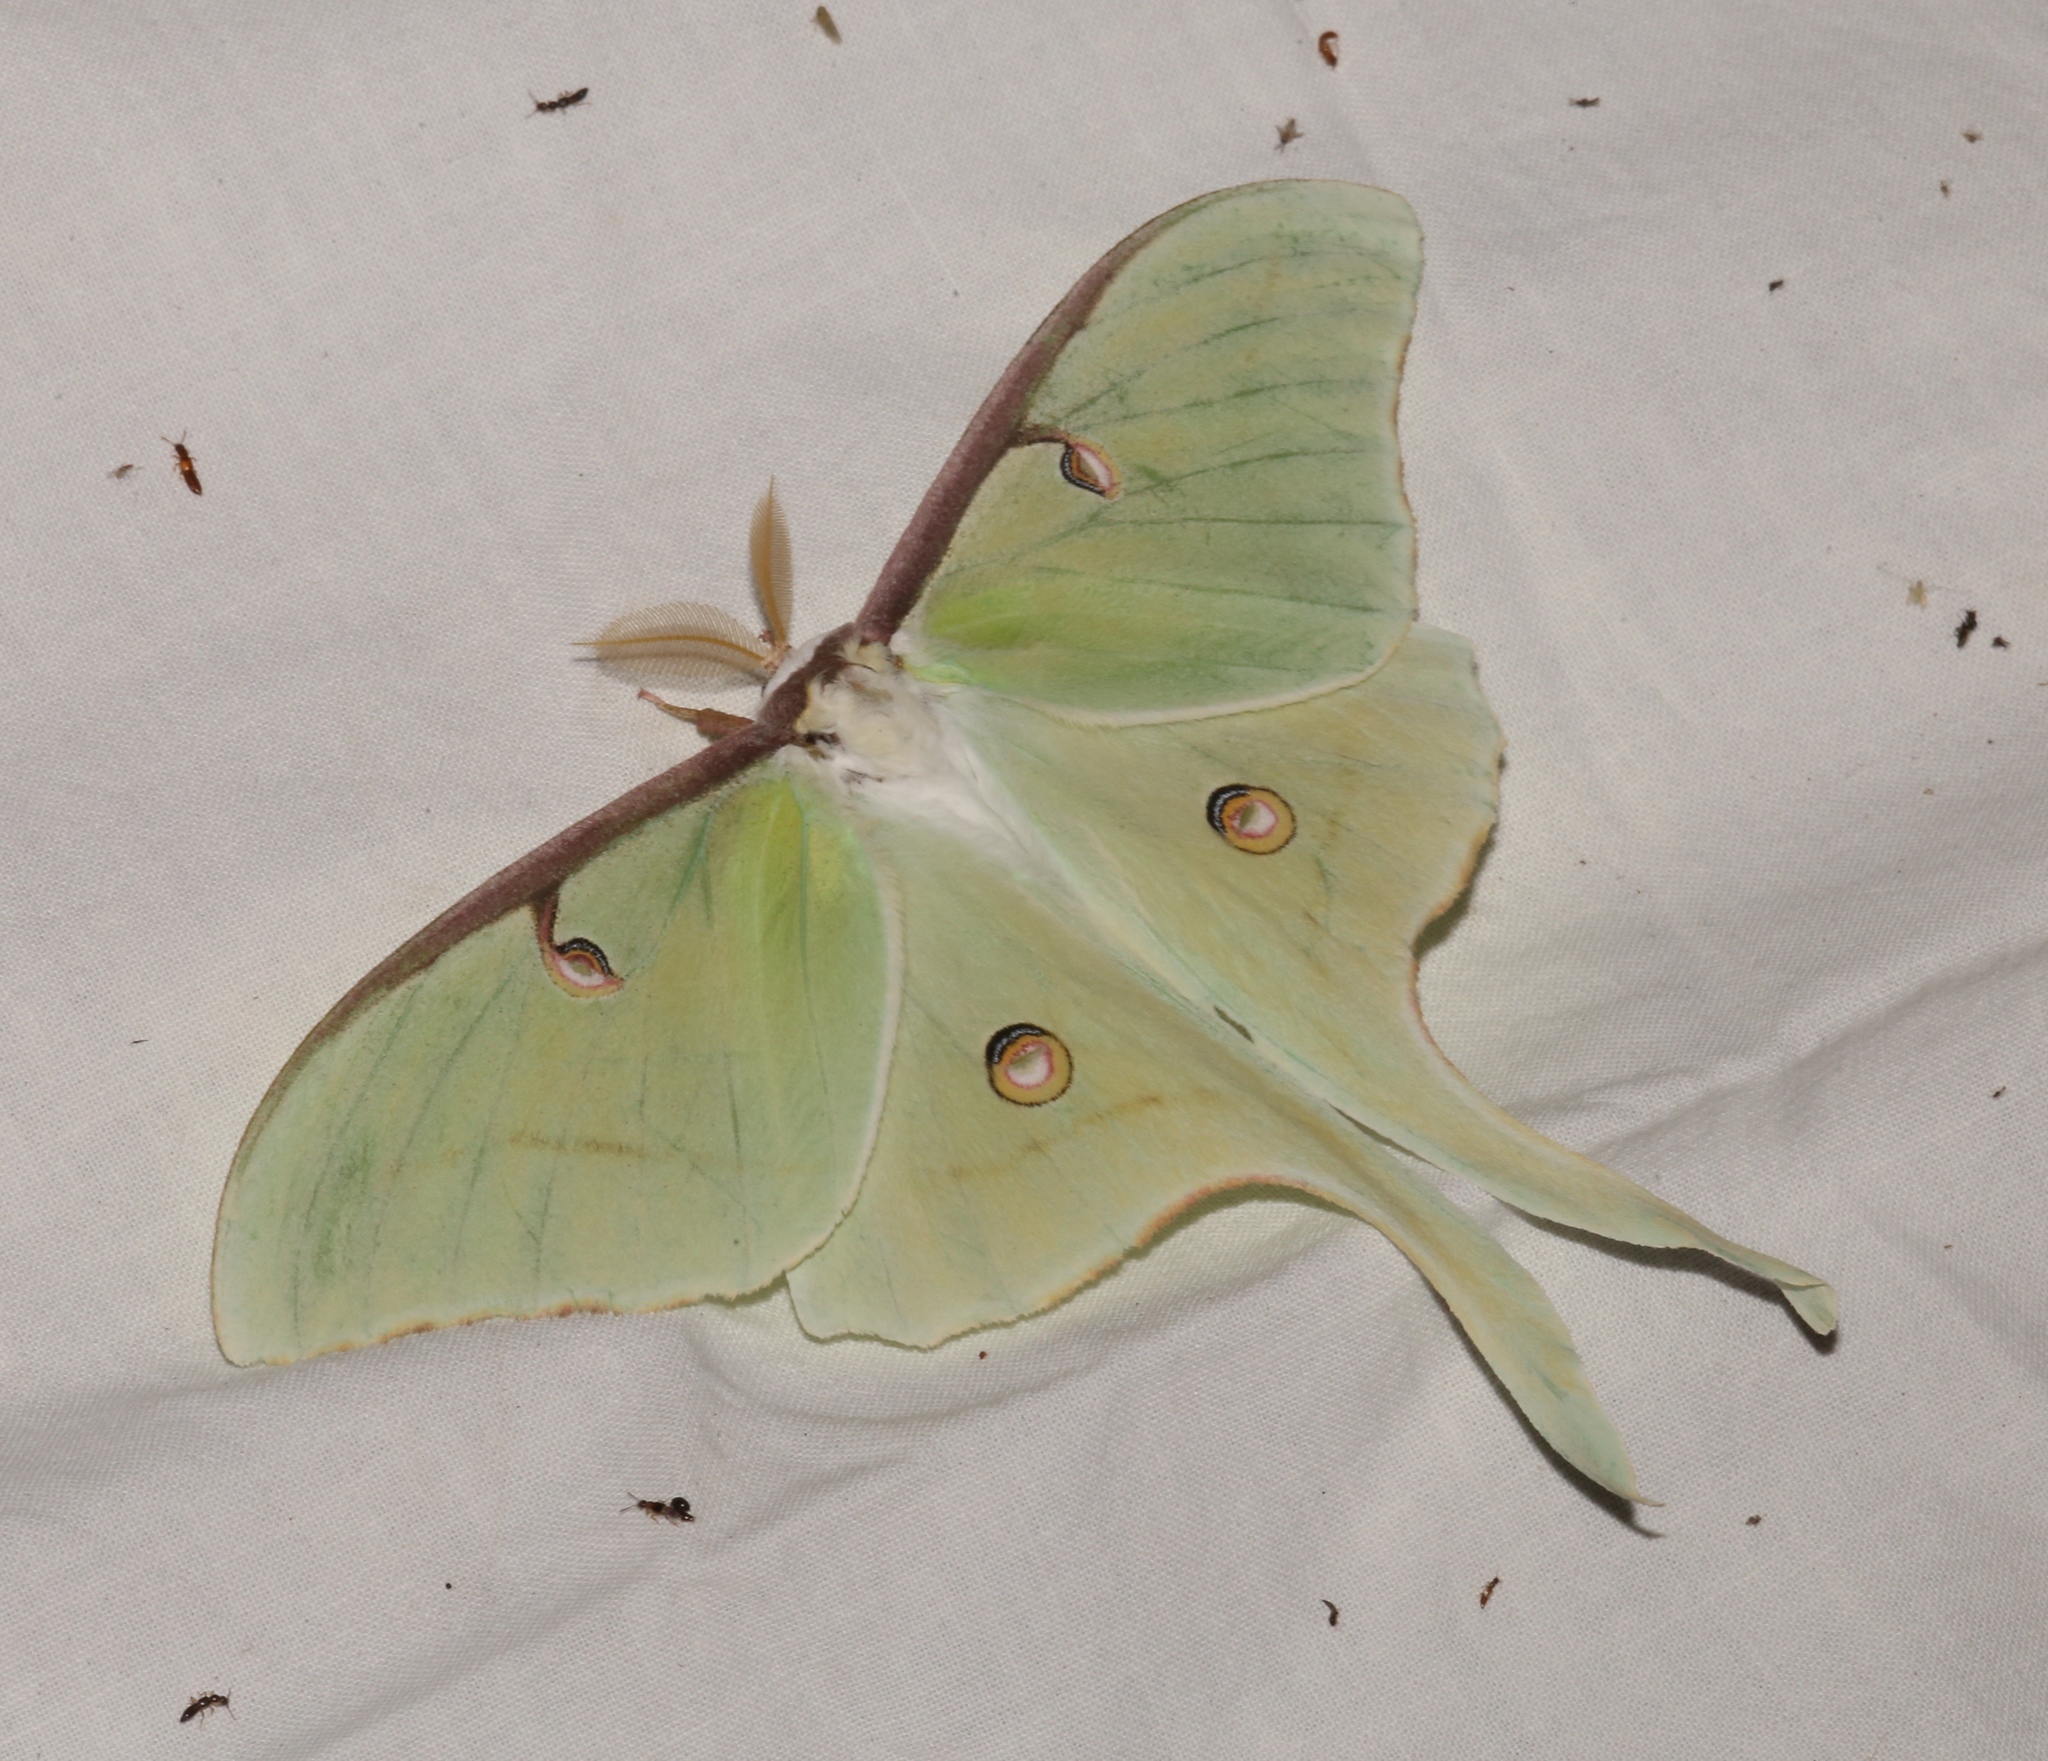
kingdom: Animalia
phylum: Arthropoda
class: Insecta
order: Lepidoptera
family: Saturniidae
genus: Actias
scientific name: Actias luna
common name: Luna moth
